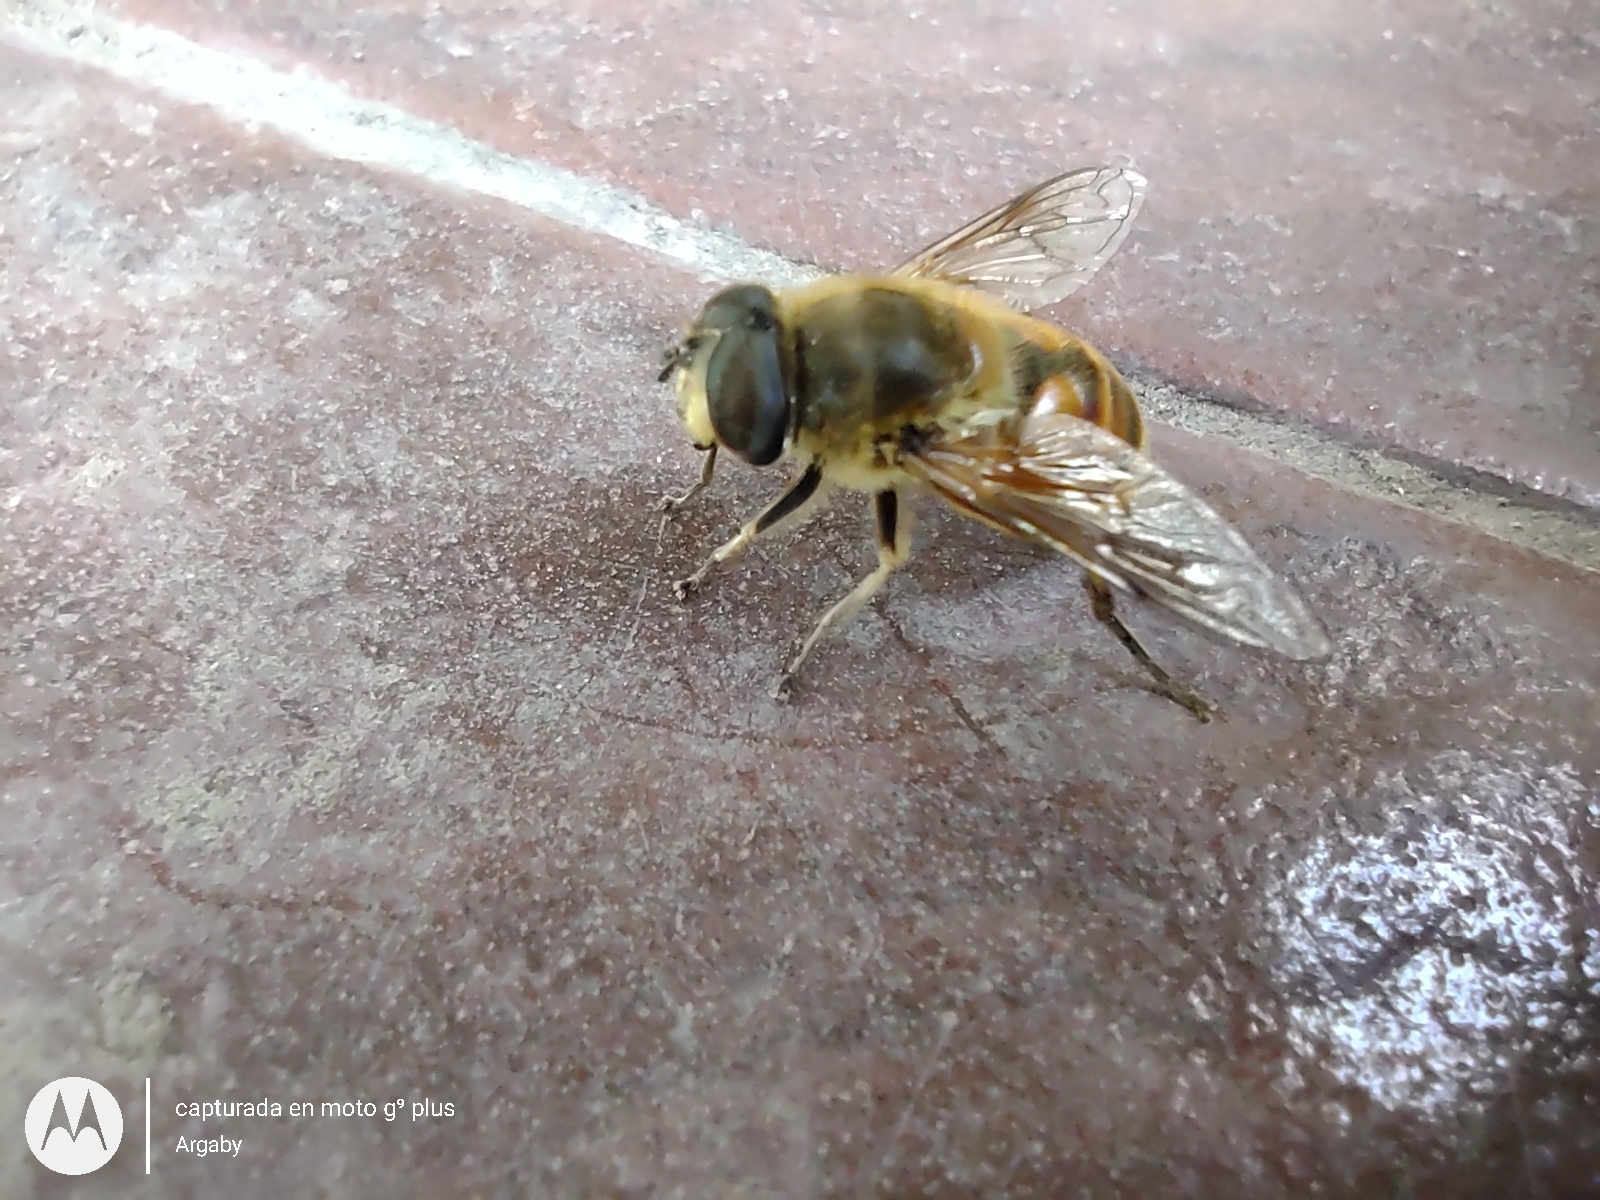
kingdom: Animalia
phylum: Arthropoda
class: Insecta
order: Diptera
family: Syrphidae
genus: Eristalis
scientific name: Eristalis tenax
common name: Drone fly
